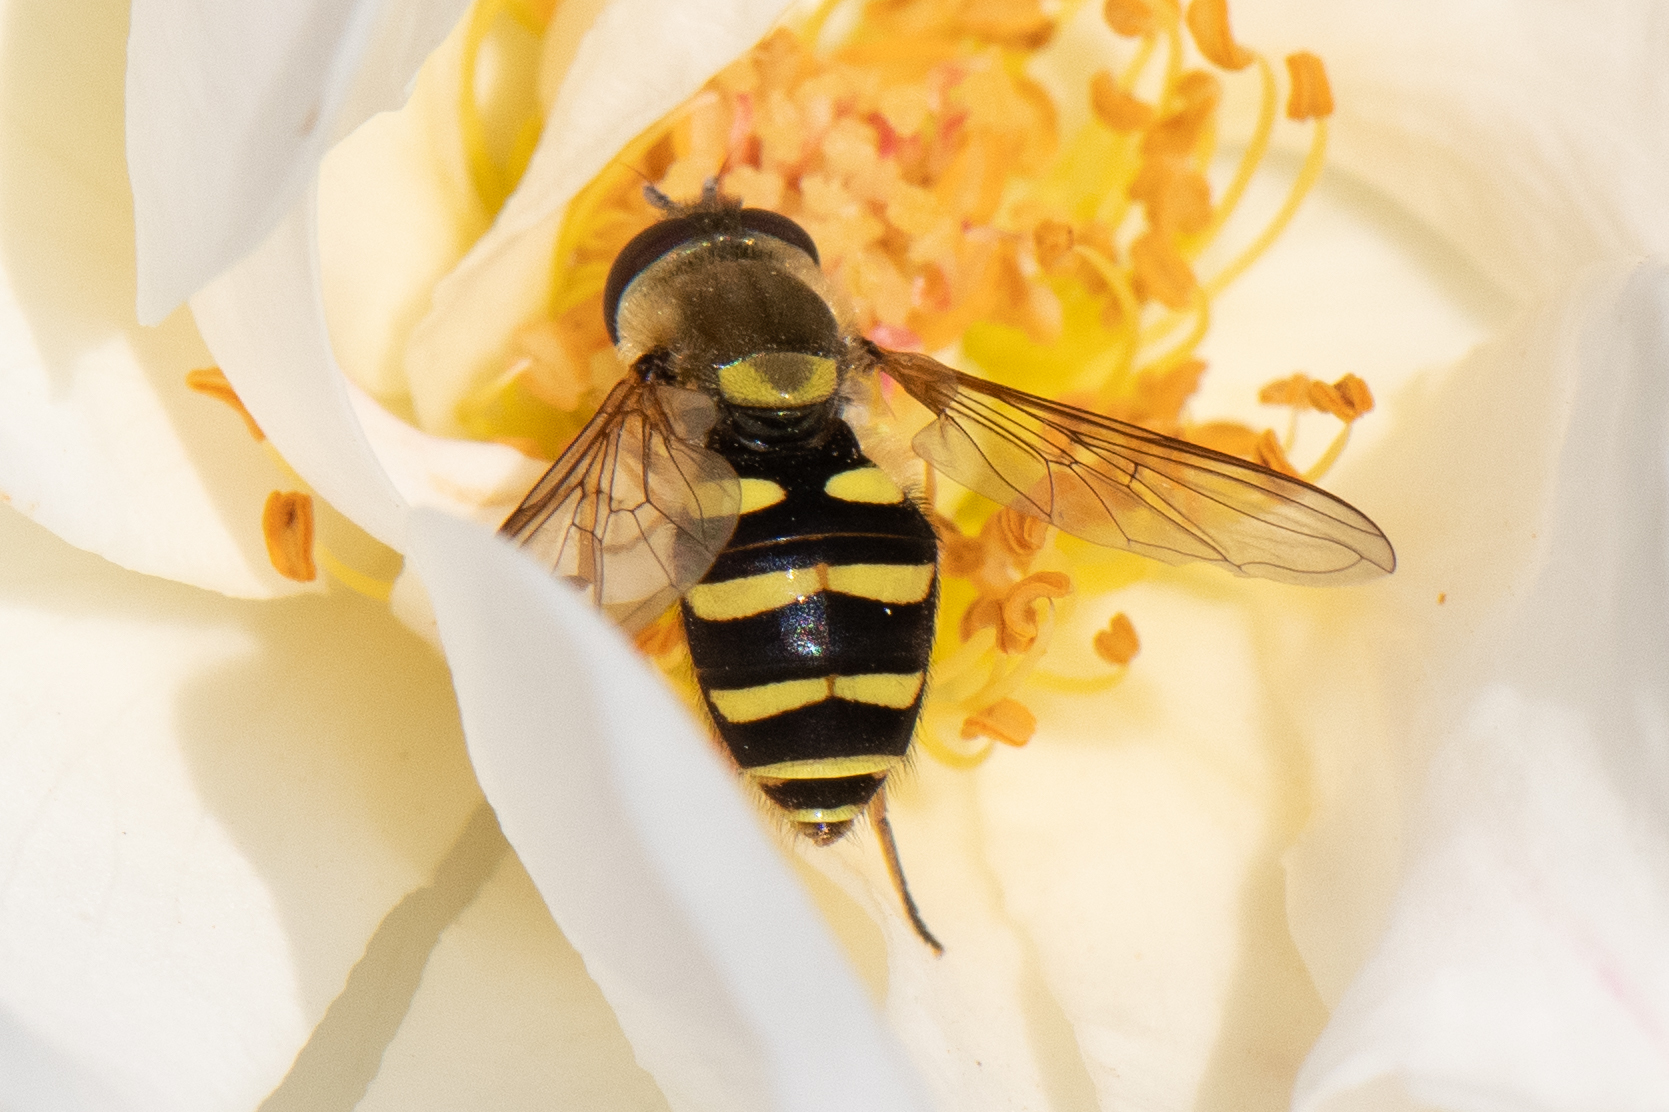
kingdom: Animalia
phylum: Arthropoda
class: Insecta
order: Diptera
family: Syrphidae
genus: Syrphus
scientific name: Syrphus opinator
